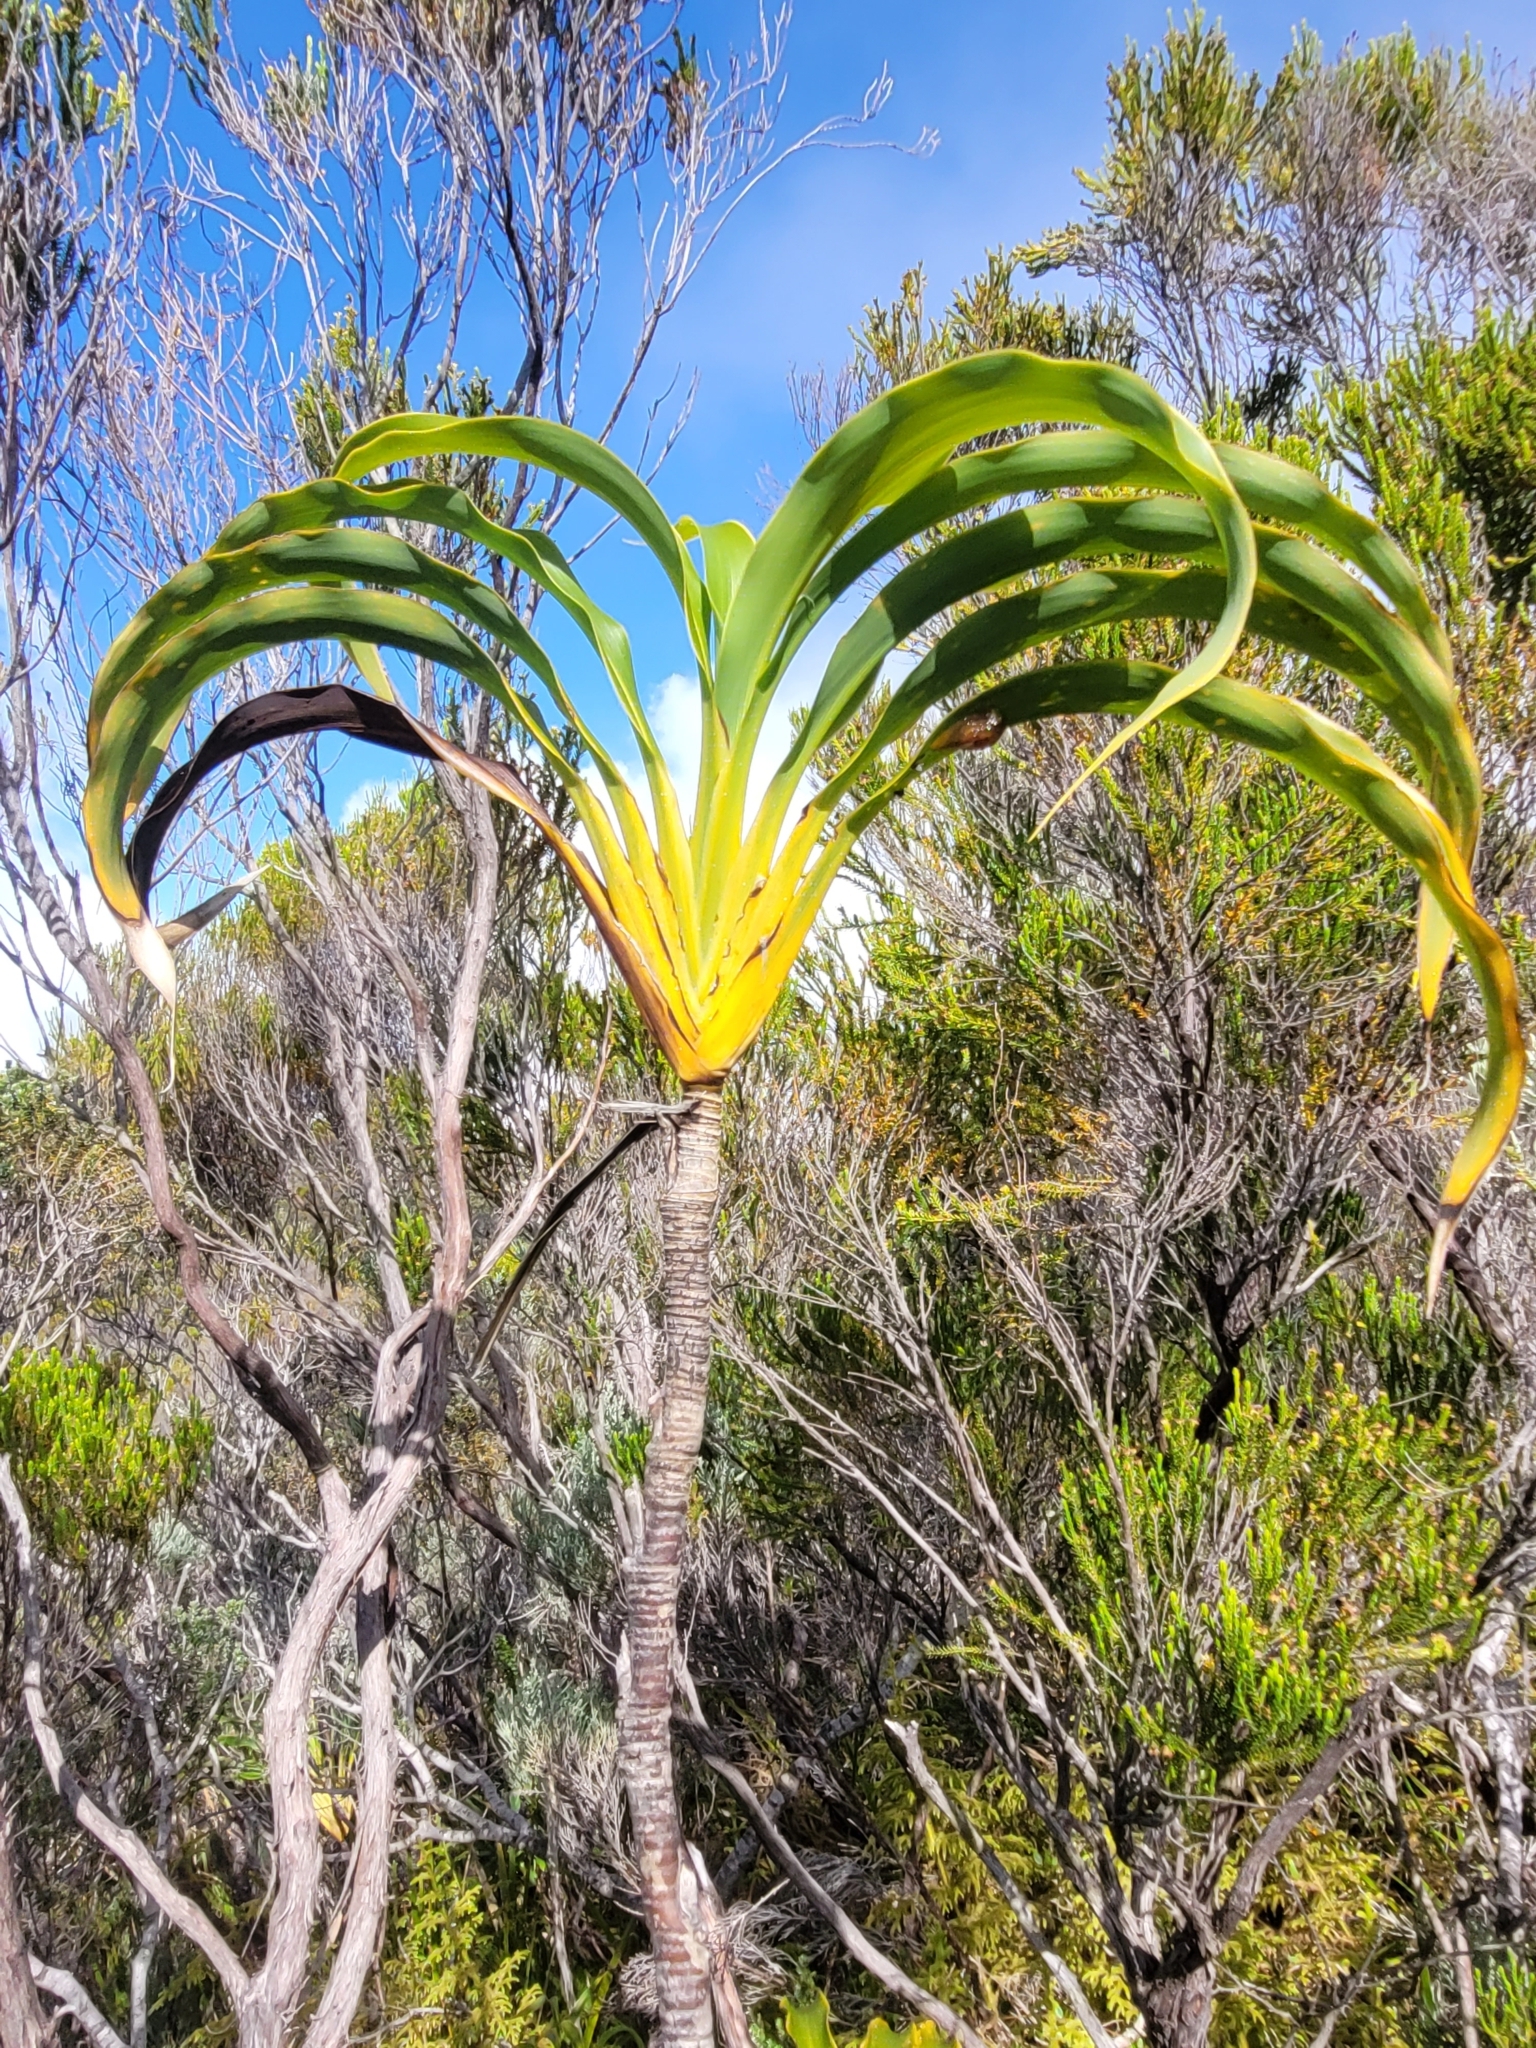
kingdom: Plantae
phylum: Tracheophyta
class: Liliopsida
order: Asparagales
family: Asparagaceae
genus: Cordyline
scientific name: Cordyline mauritiana
